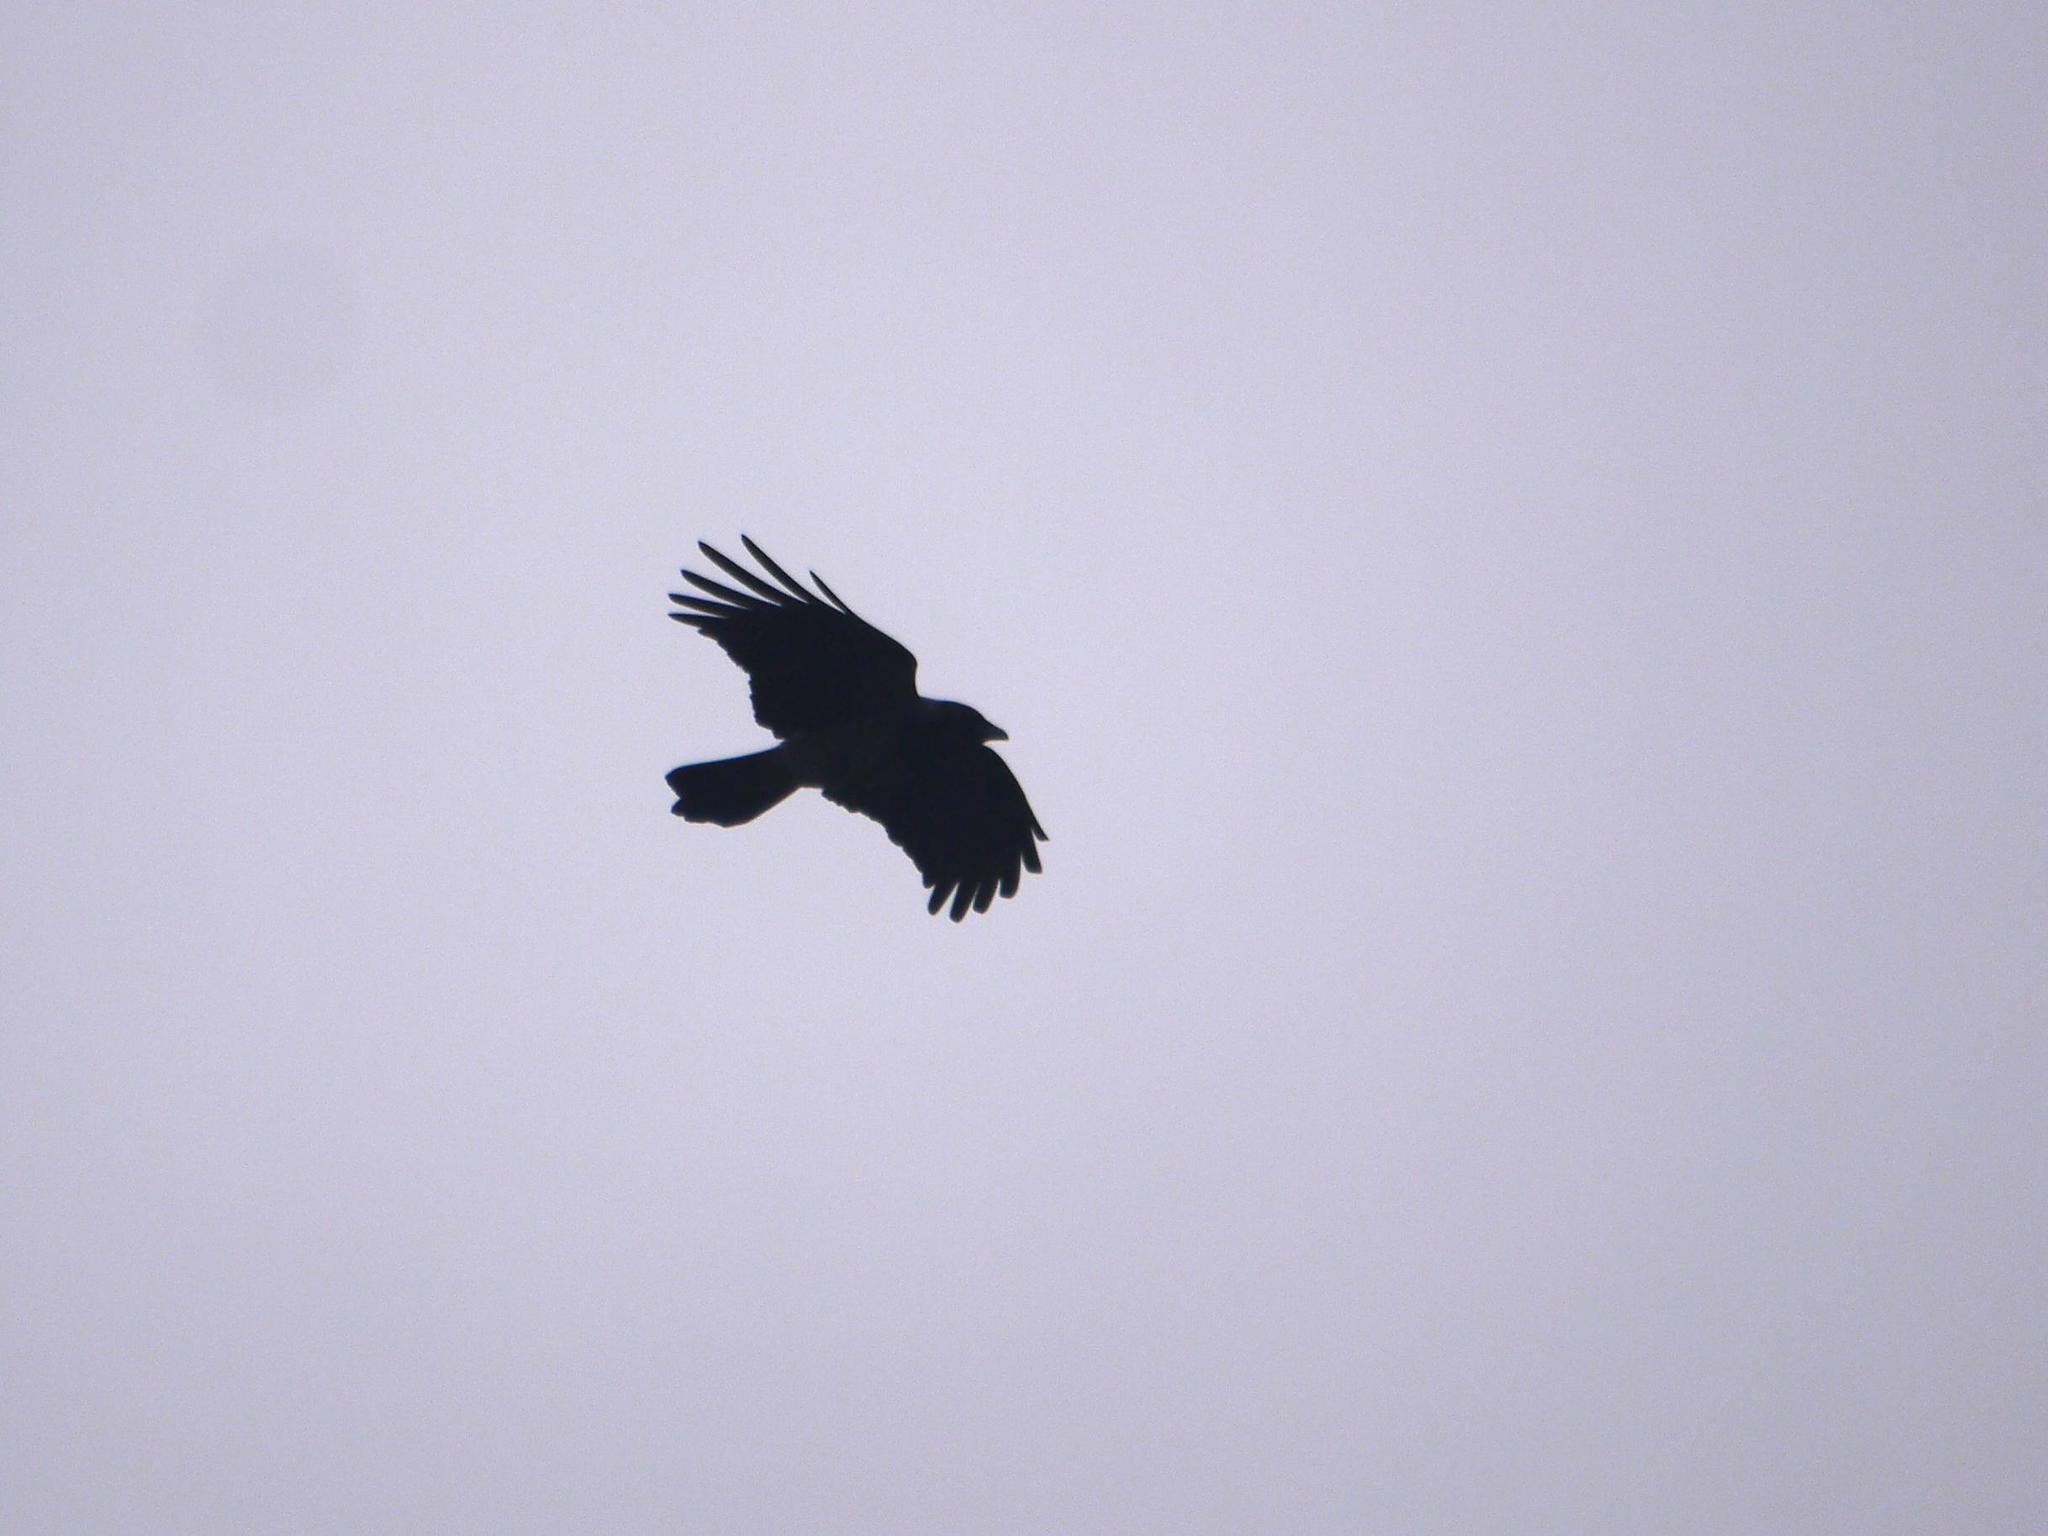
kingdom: Animalia
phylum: Chordata
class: Aves
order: Passeriformes
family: Corvidae
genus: Corvus
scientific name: Corvus cornix
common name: Hooded crow
